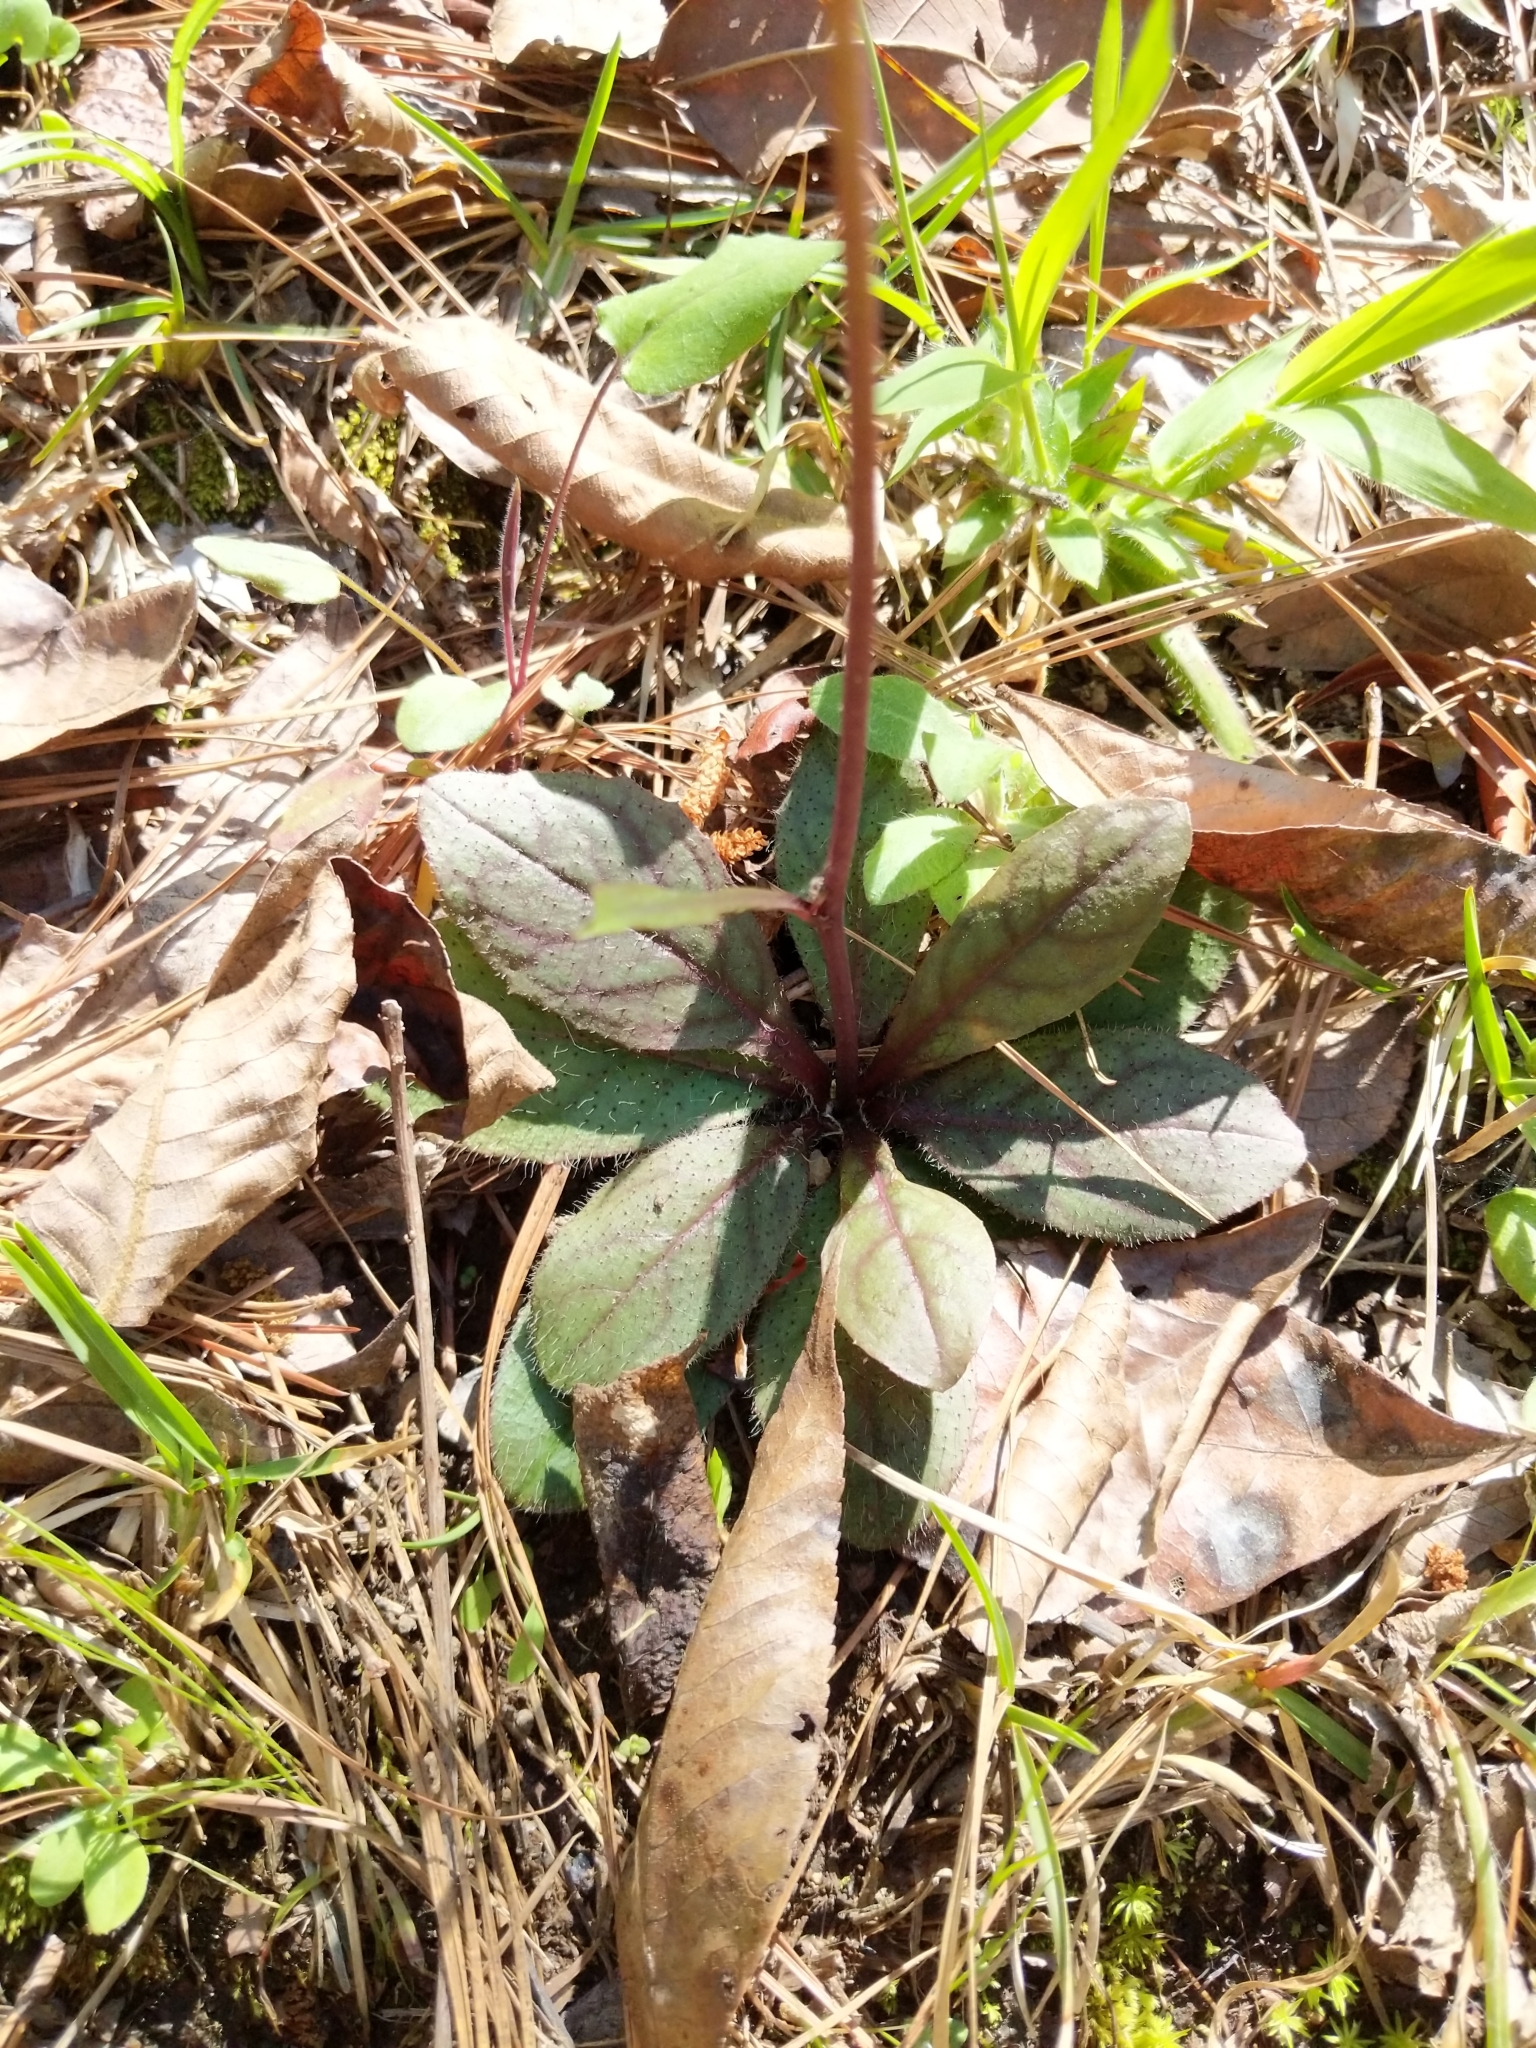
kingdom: Plantae
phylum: Tracheophyta
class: Magnoliopsida
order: Asterales
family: Asteraceae
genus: Hieracium
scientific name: Hieracium venosum
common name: Rattlesnake hawkweed
